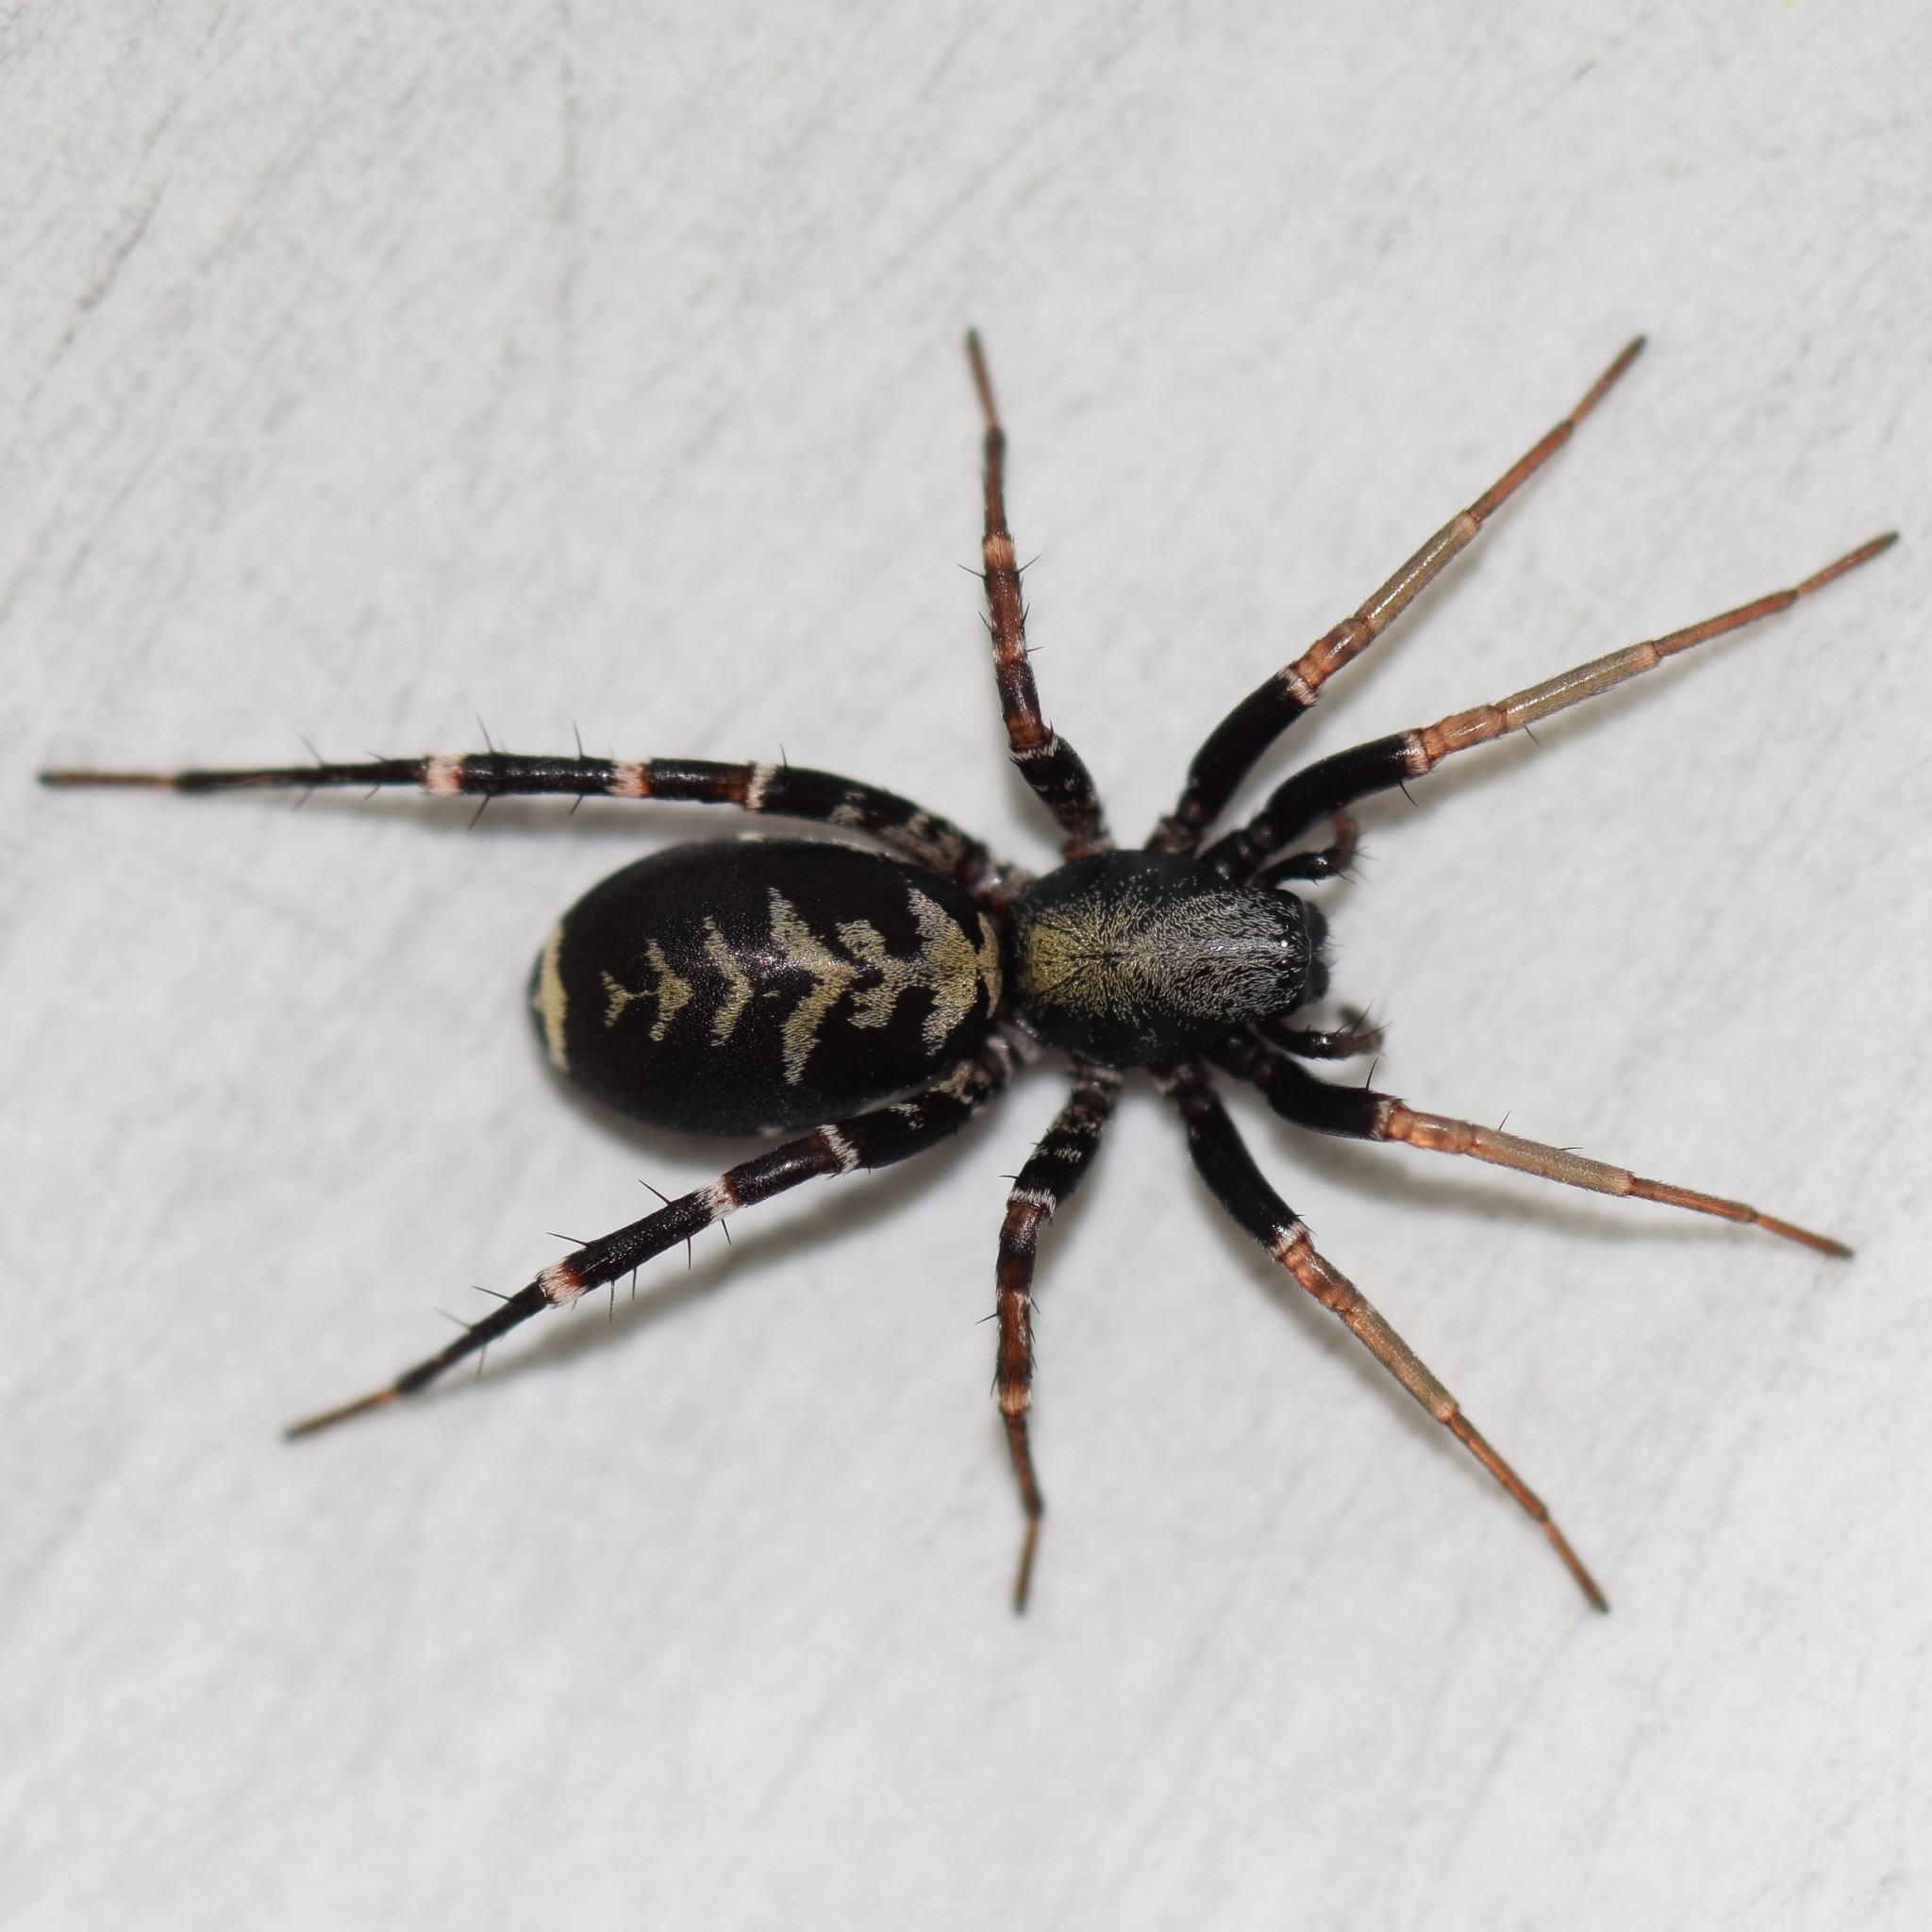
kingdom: Animalia
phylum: Arthropoda
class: Arachnida
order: Araneae
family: Corinnidae
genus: Castianeira
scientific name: Castianeira
